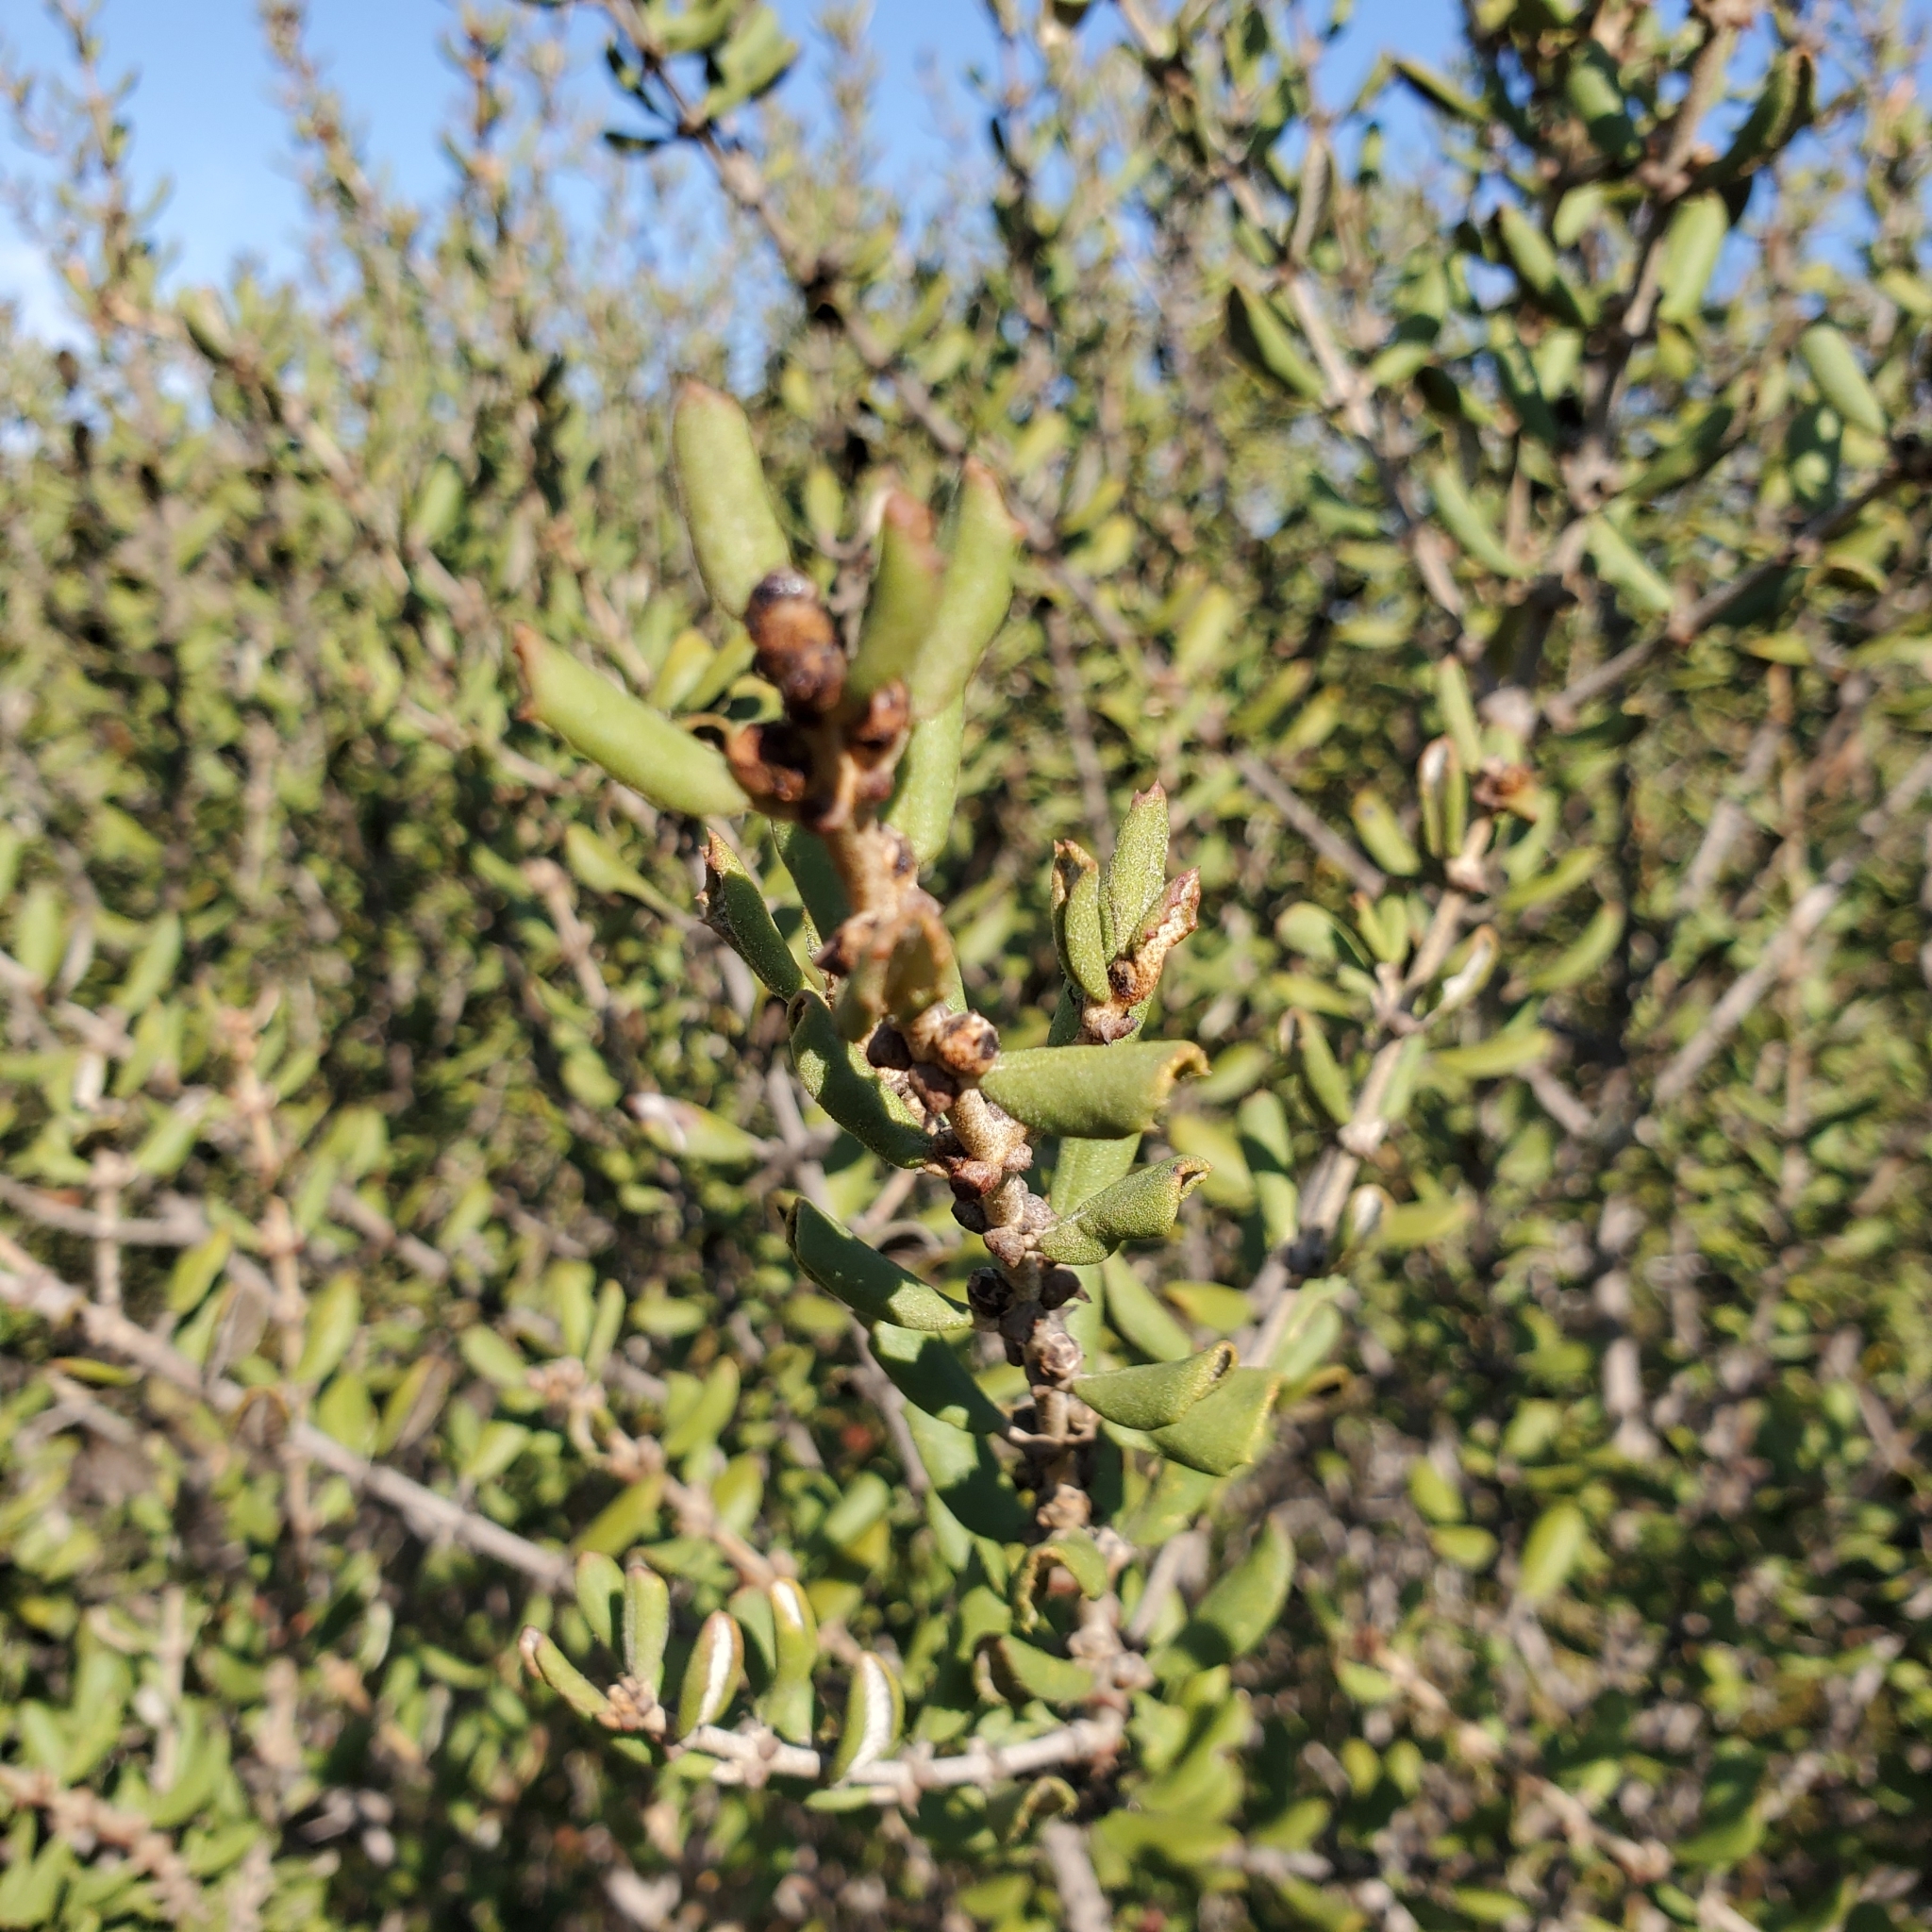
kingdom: Plantae
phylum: Tracheophyta
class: Magnoliopsida
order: Rosales
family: Rhamnaceae
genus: Ceanothus
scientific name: Ceanothus crassifolius
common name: Hoaryleaf ceanothus
